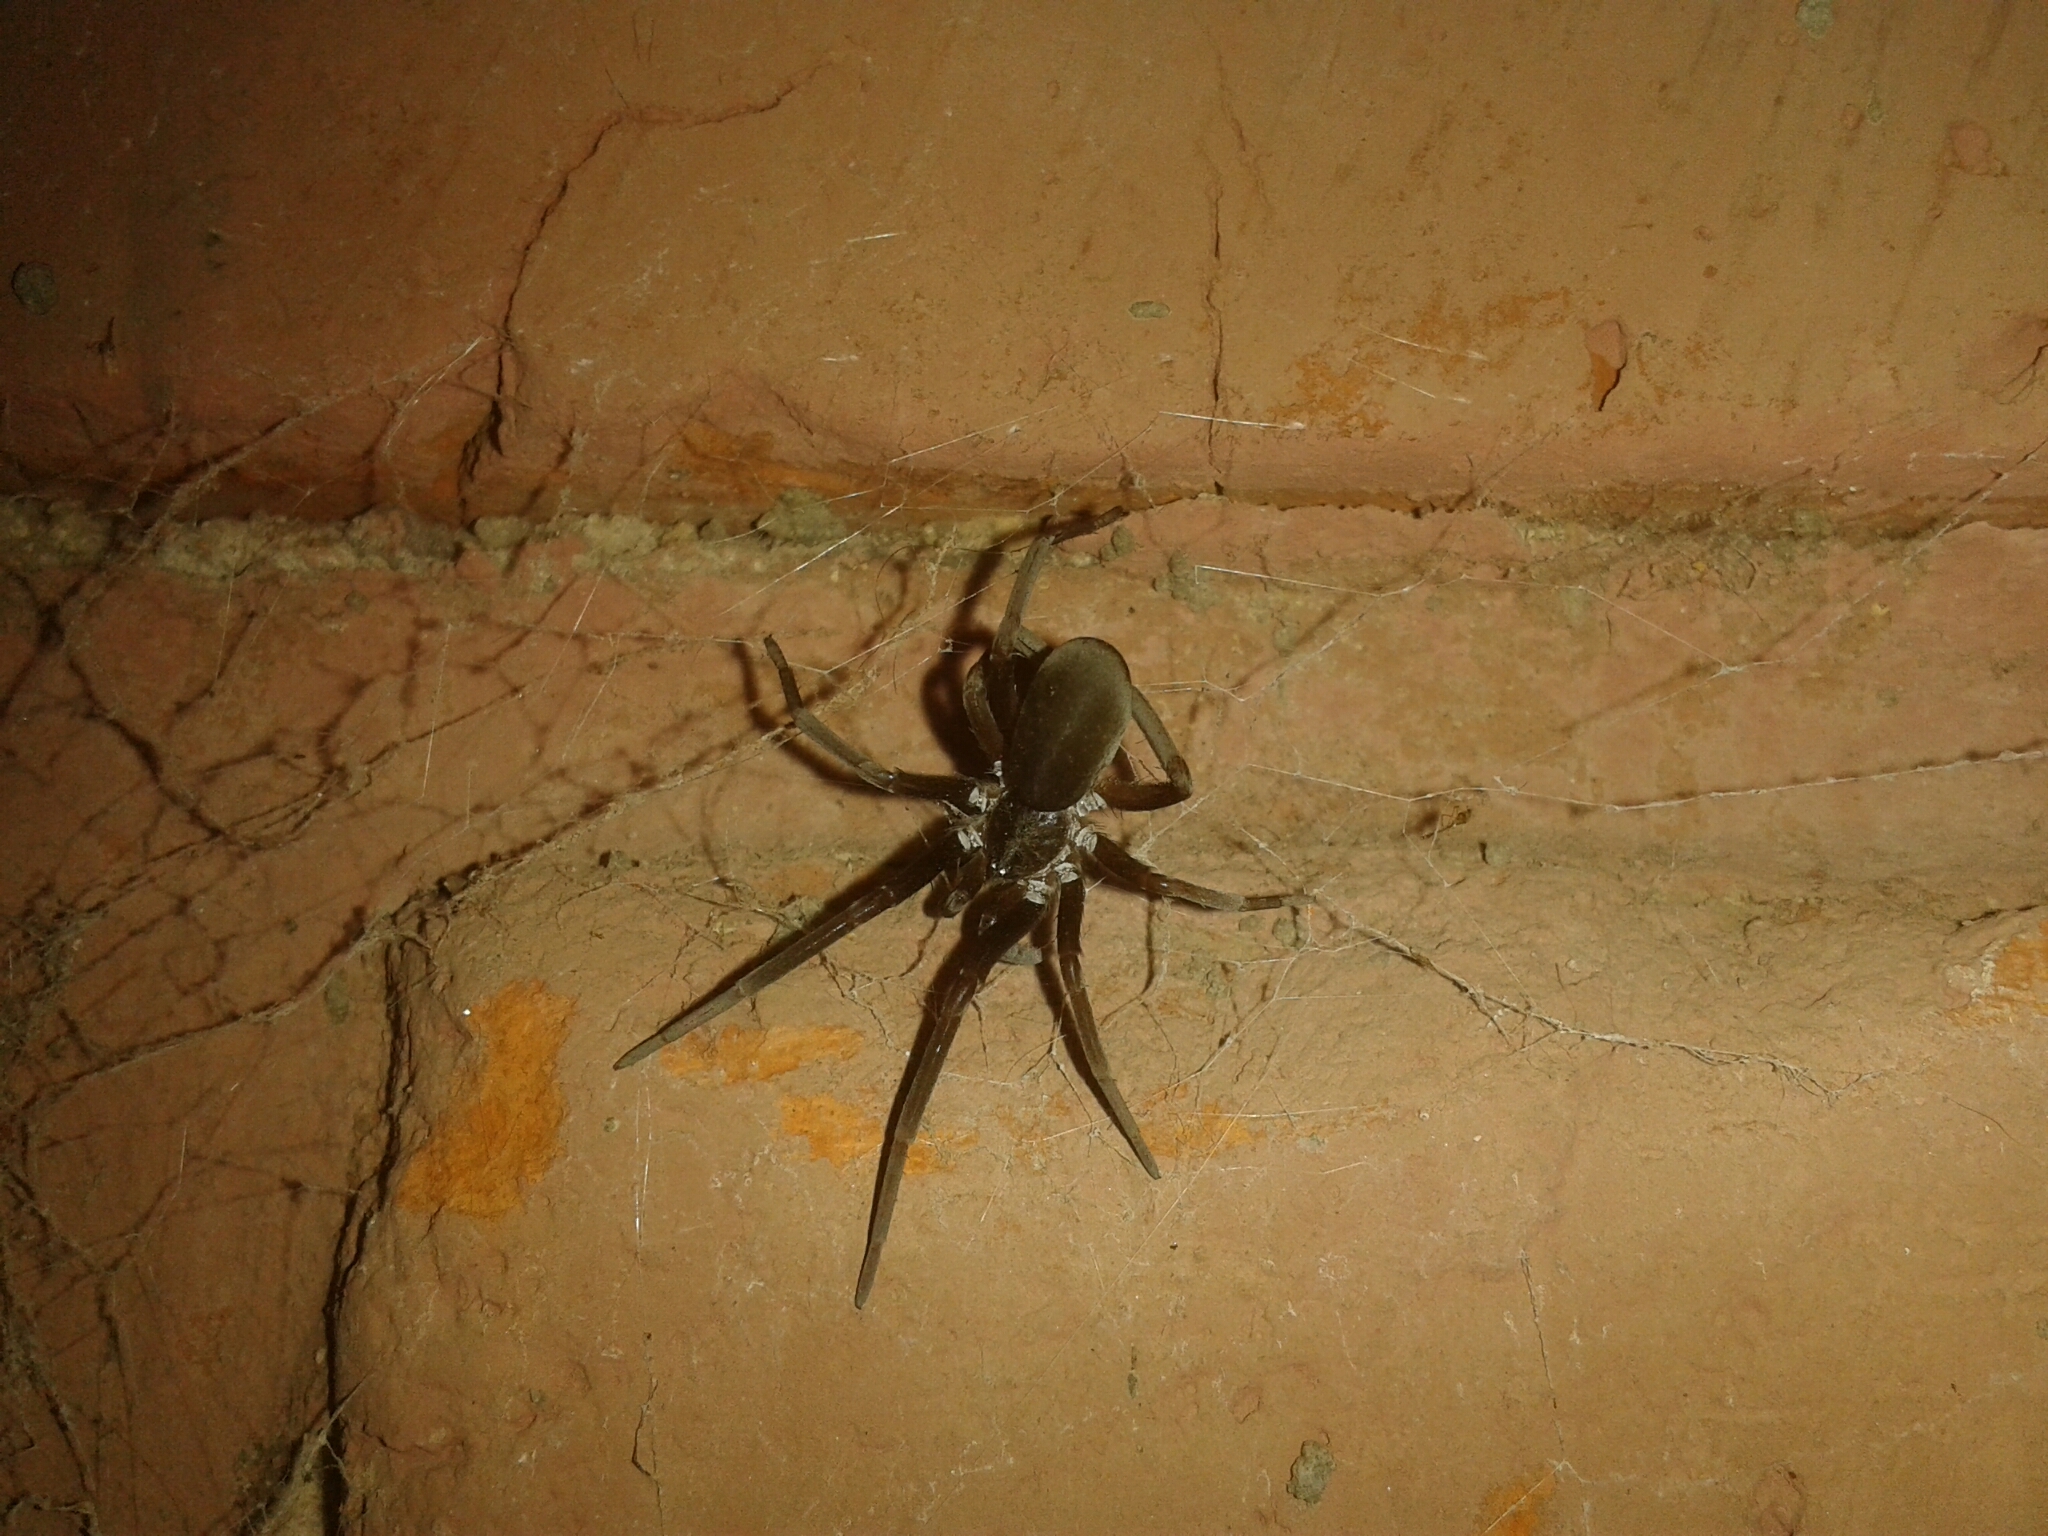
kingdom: Animalia
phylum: Arthropoda
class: Arachnida
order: Araneae
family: Filistatidae
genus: Kukulcania
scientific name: Kukulcania hibernalis
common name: Crevice weaver
